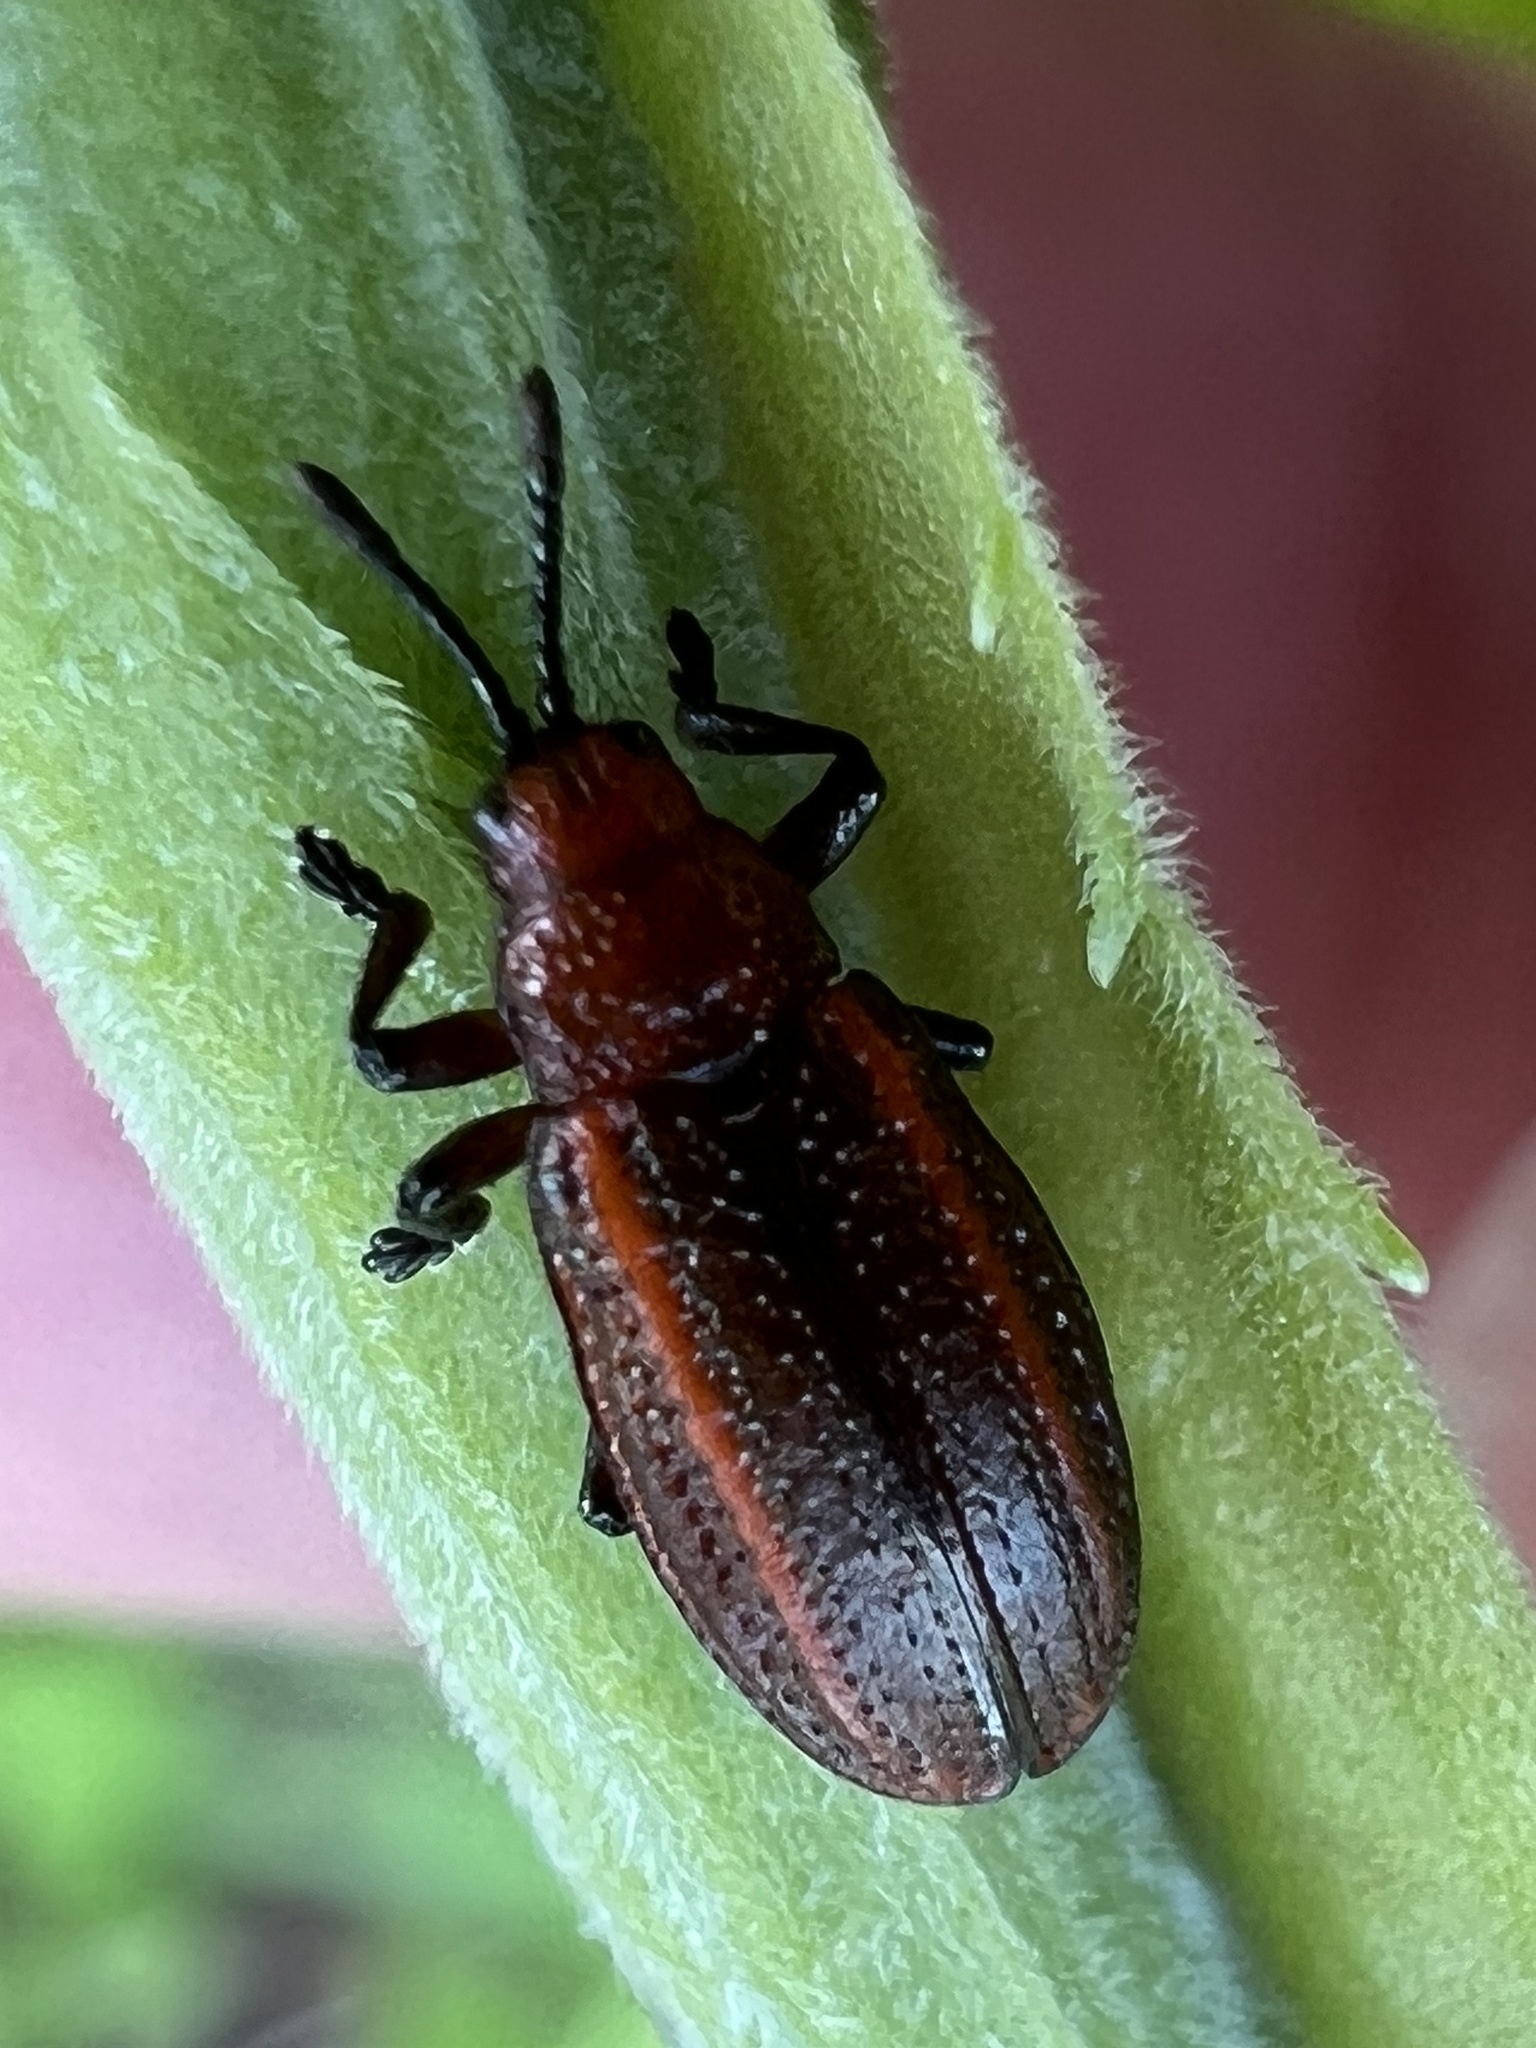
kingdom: Animalia
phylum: Arthropoda
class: Insecta
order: Coleoptera
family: Chrysomelidae
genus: Microrhopala
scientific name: Microrhopala vittata
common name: Goldenrod leaf miner beetle
